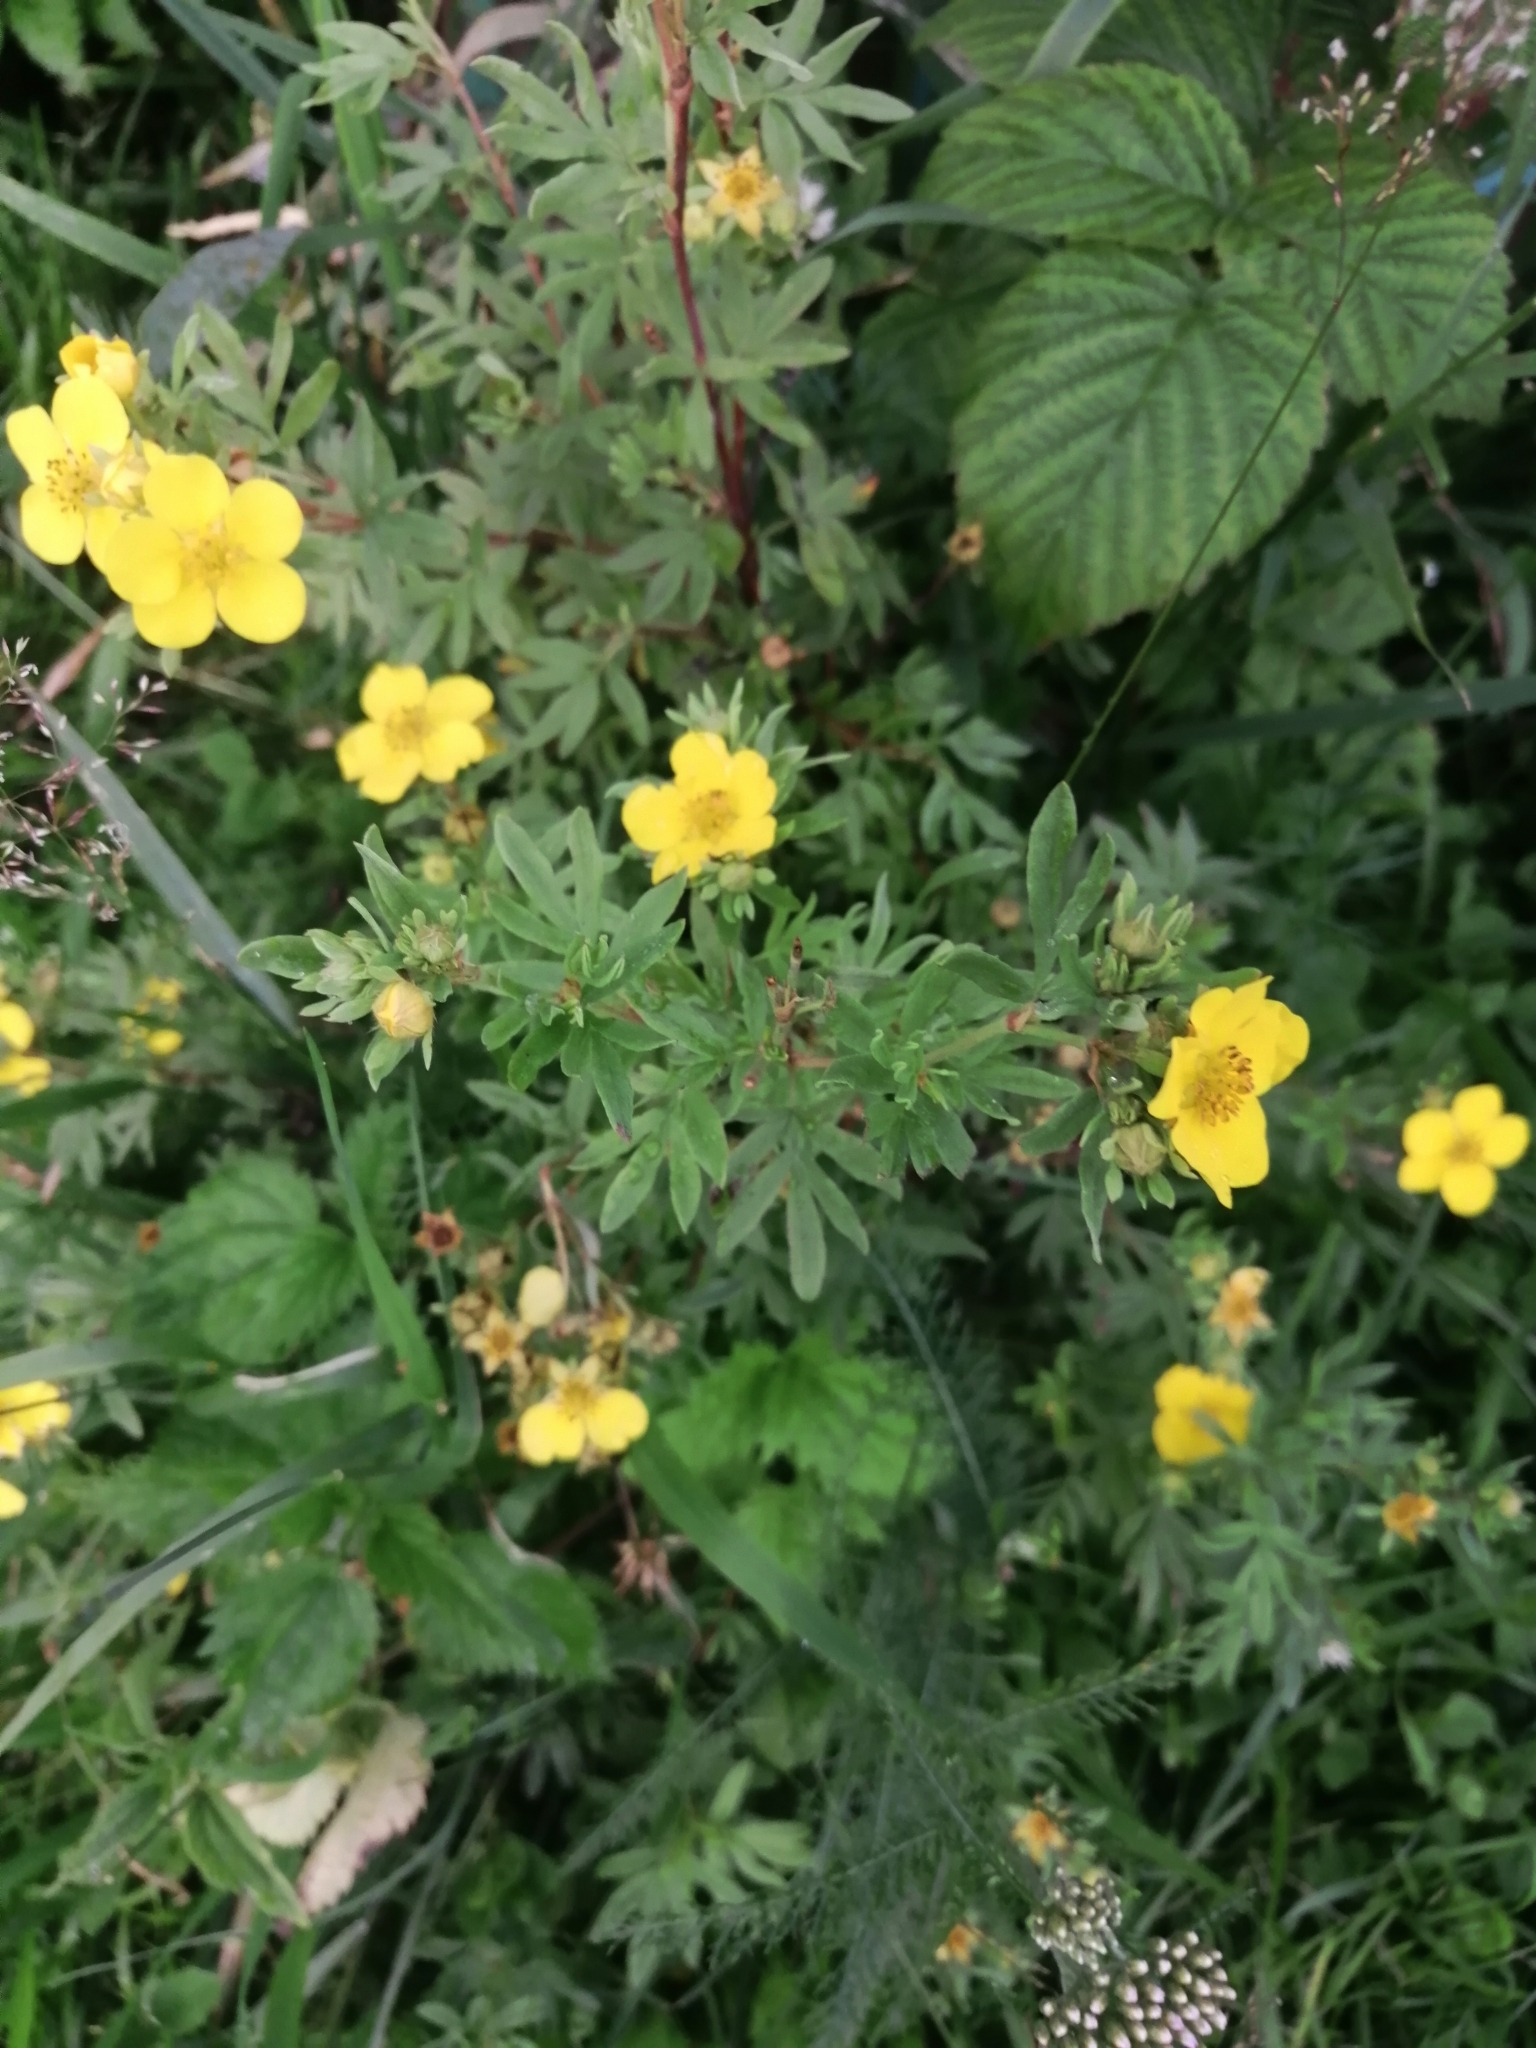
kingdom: Plantae
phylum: Tracheophyta
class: Magnoliopsida
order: Rosales
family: Rosaceae
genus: Dasiphora
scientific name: Dasiphora fruticosa
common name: Shrubby cinquefoil
